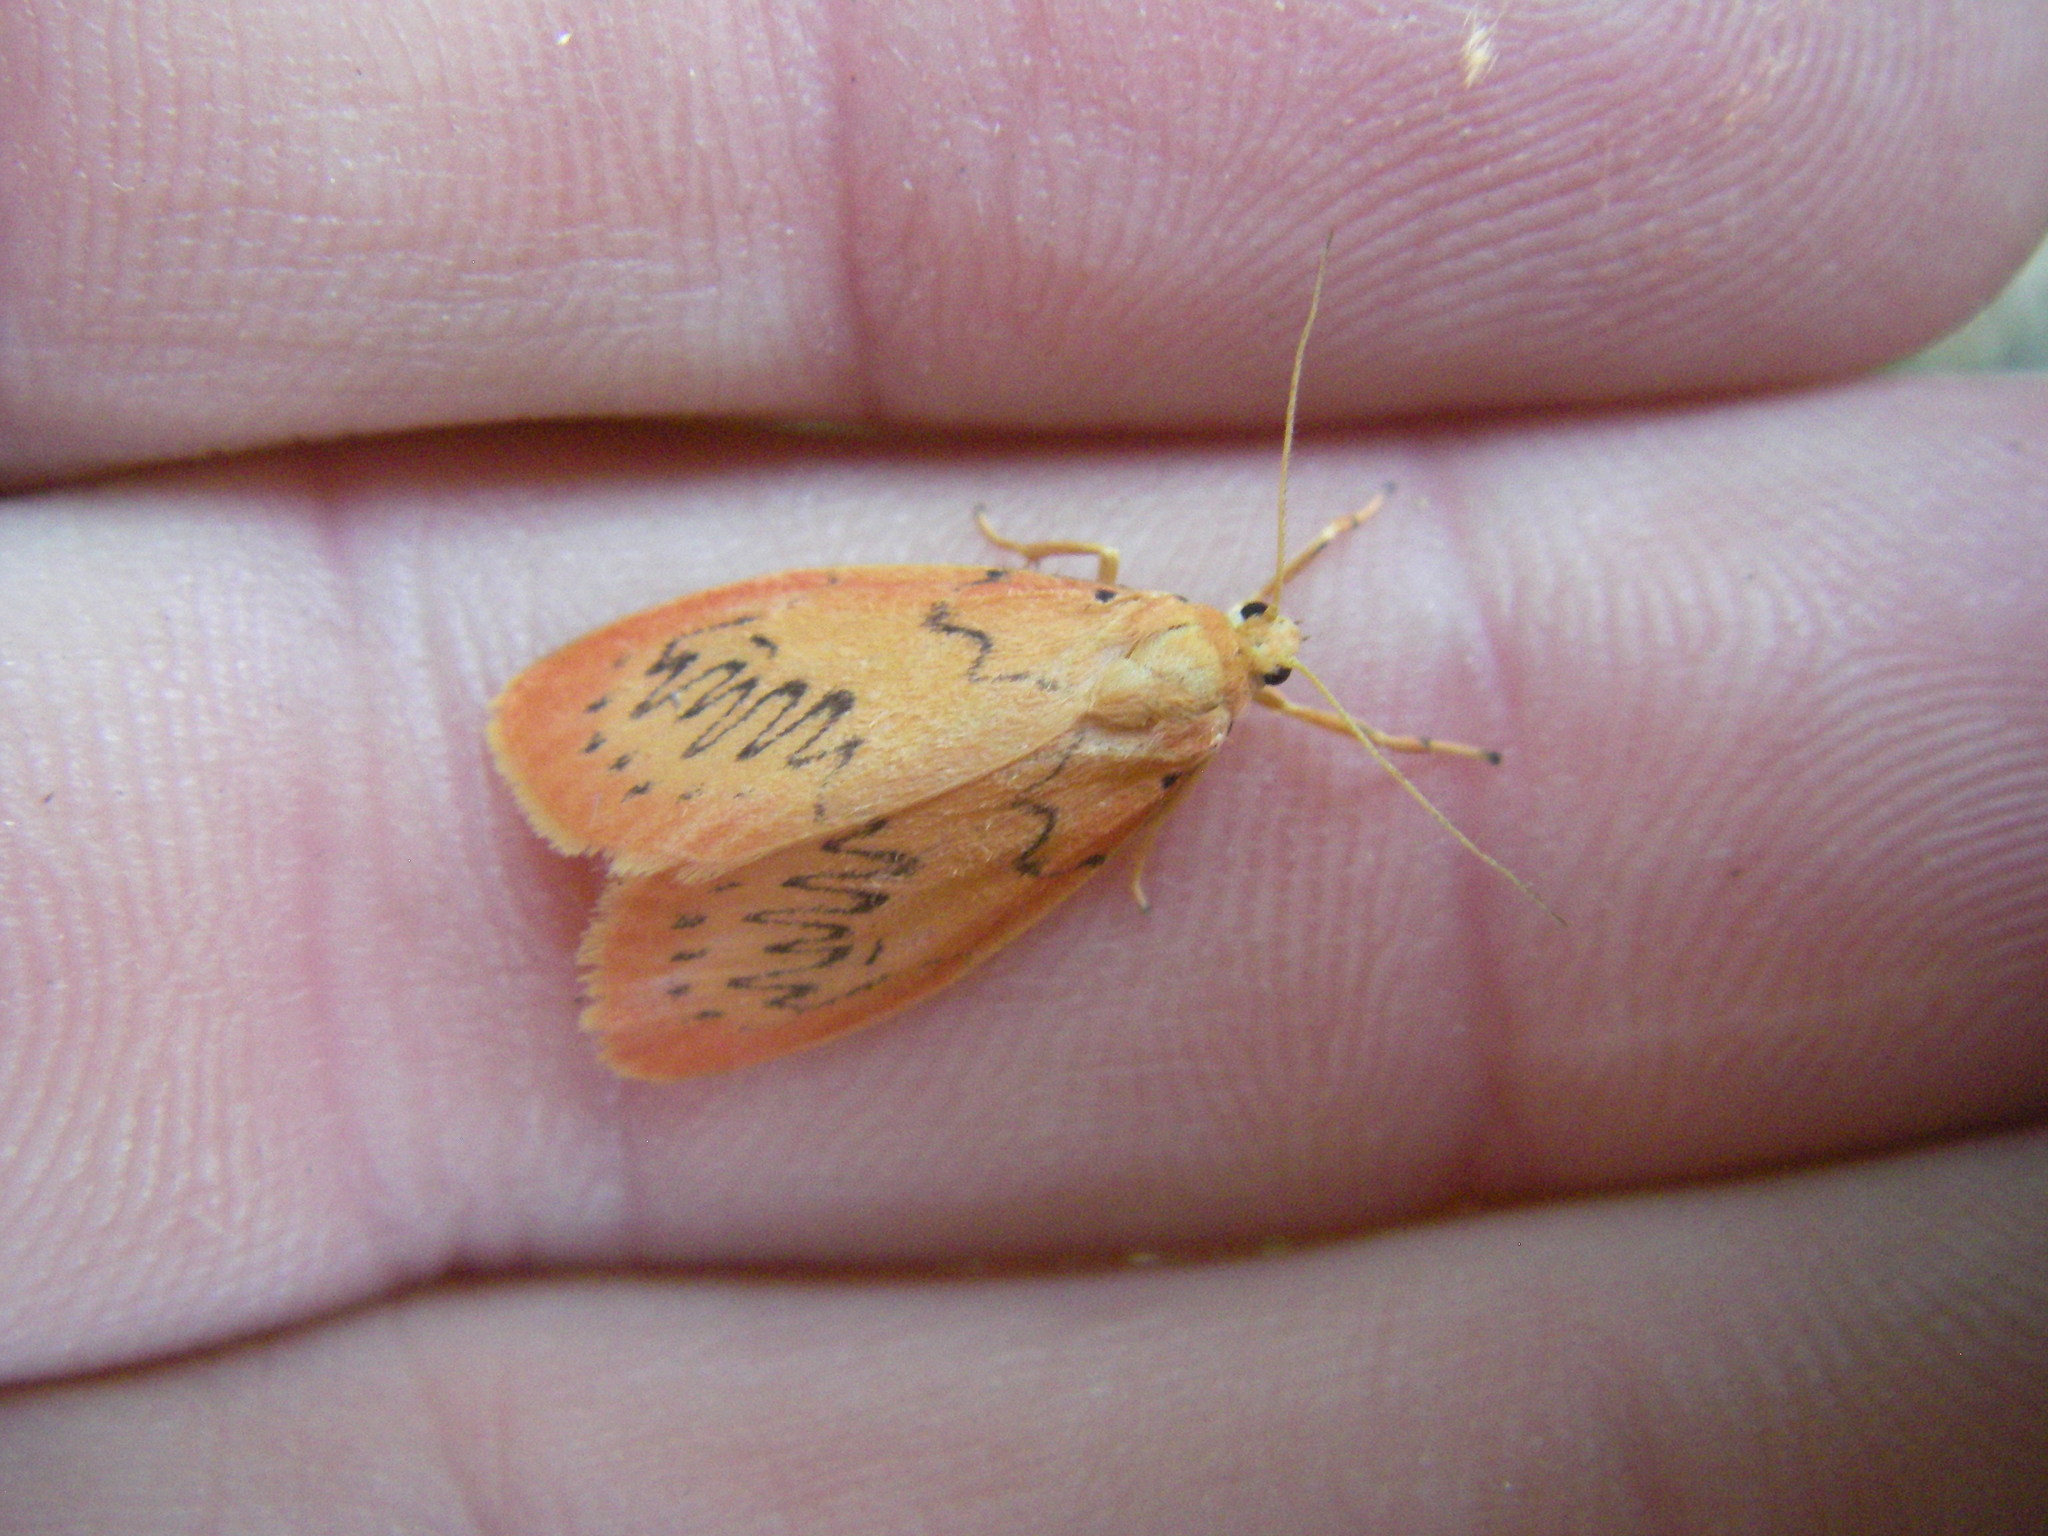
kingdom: Animalia
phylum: Arthropoda
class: Insecta
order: Lepidoptera
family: Erebidae
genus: Miltochrista
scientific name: Miltochrista miniata
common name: Rosy footman
